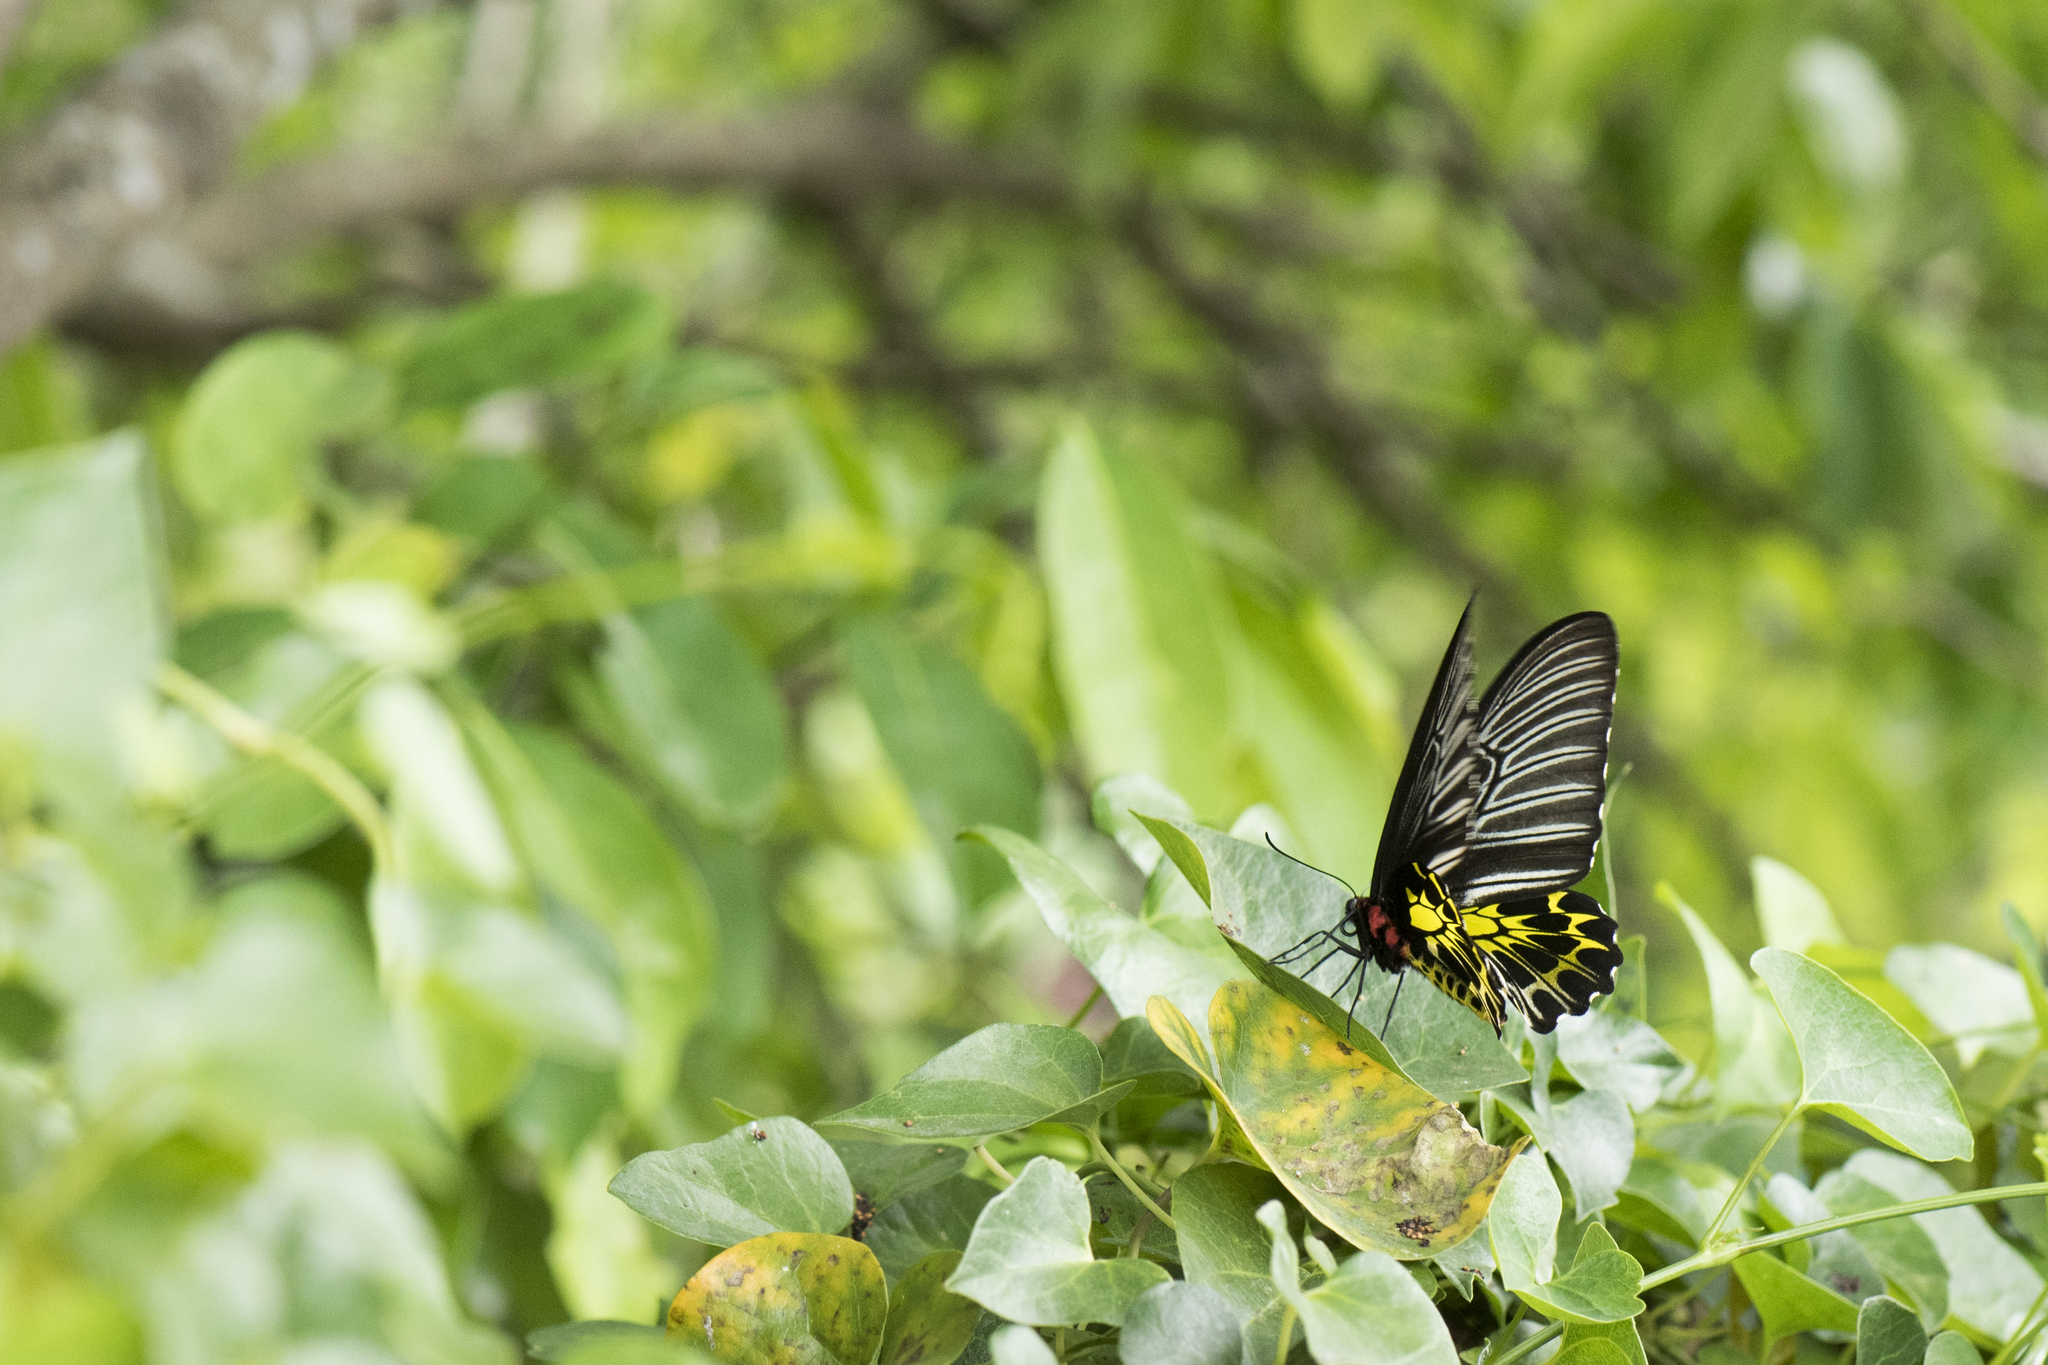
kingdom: Animalia
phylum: Arthropoda
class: Insecta
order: Lepidoptera
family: Papilionidae
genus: Troides
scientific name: Troides aeacus
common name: Golden birdwing
